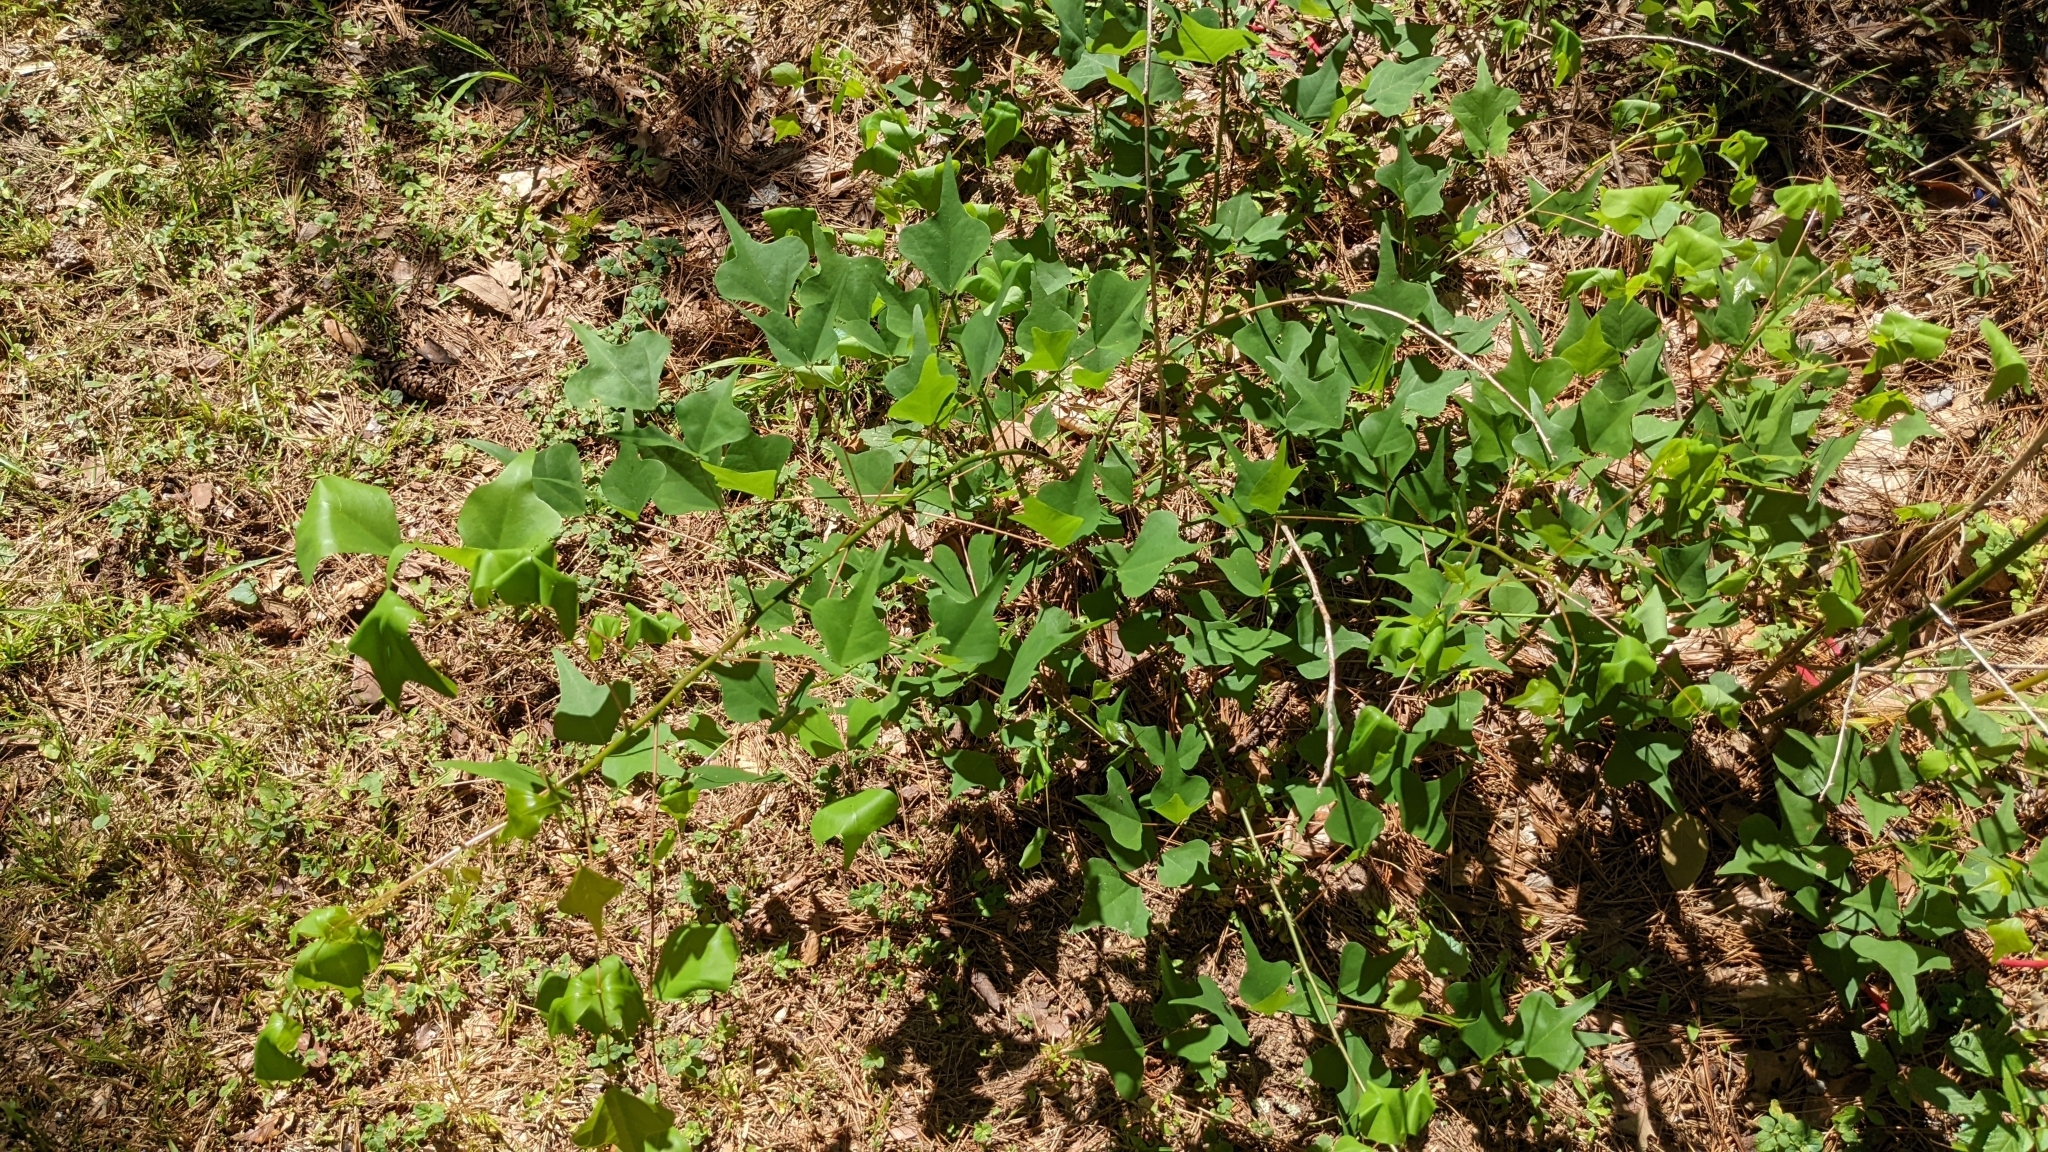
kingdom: Plantae
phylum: Tracheophyta
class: Magnoliopsida
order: Fabales
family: Fabaceae
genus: Erythrina
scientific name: Erythrina herbacea
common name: Coral-bean
